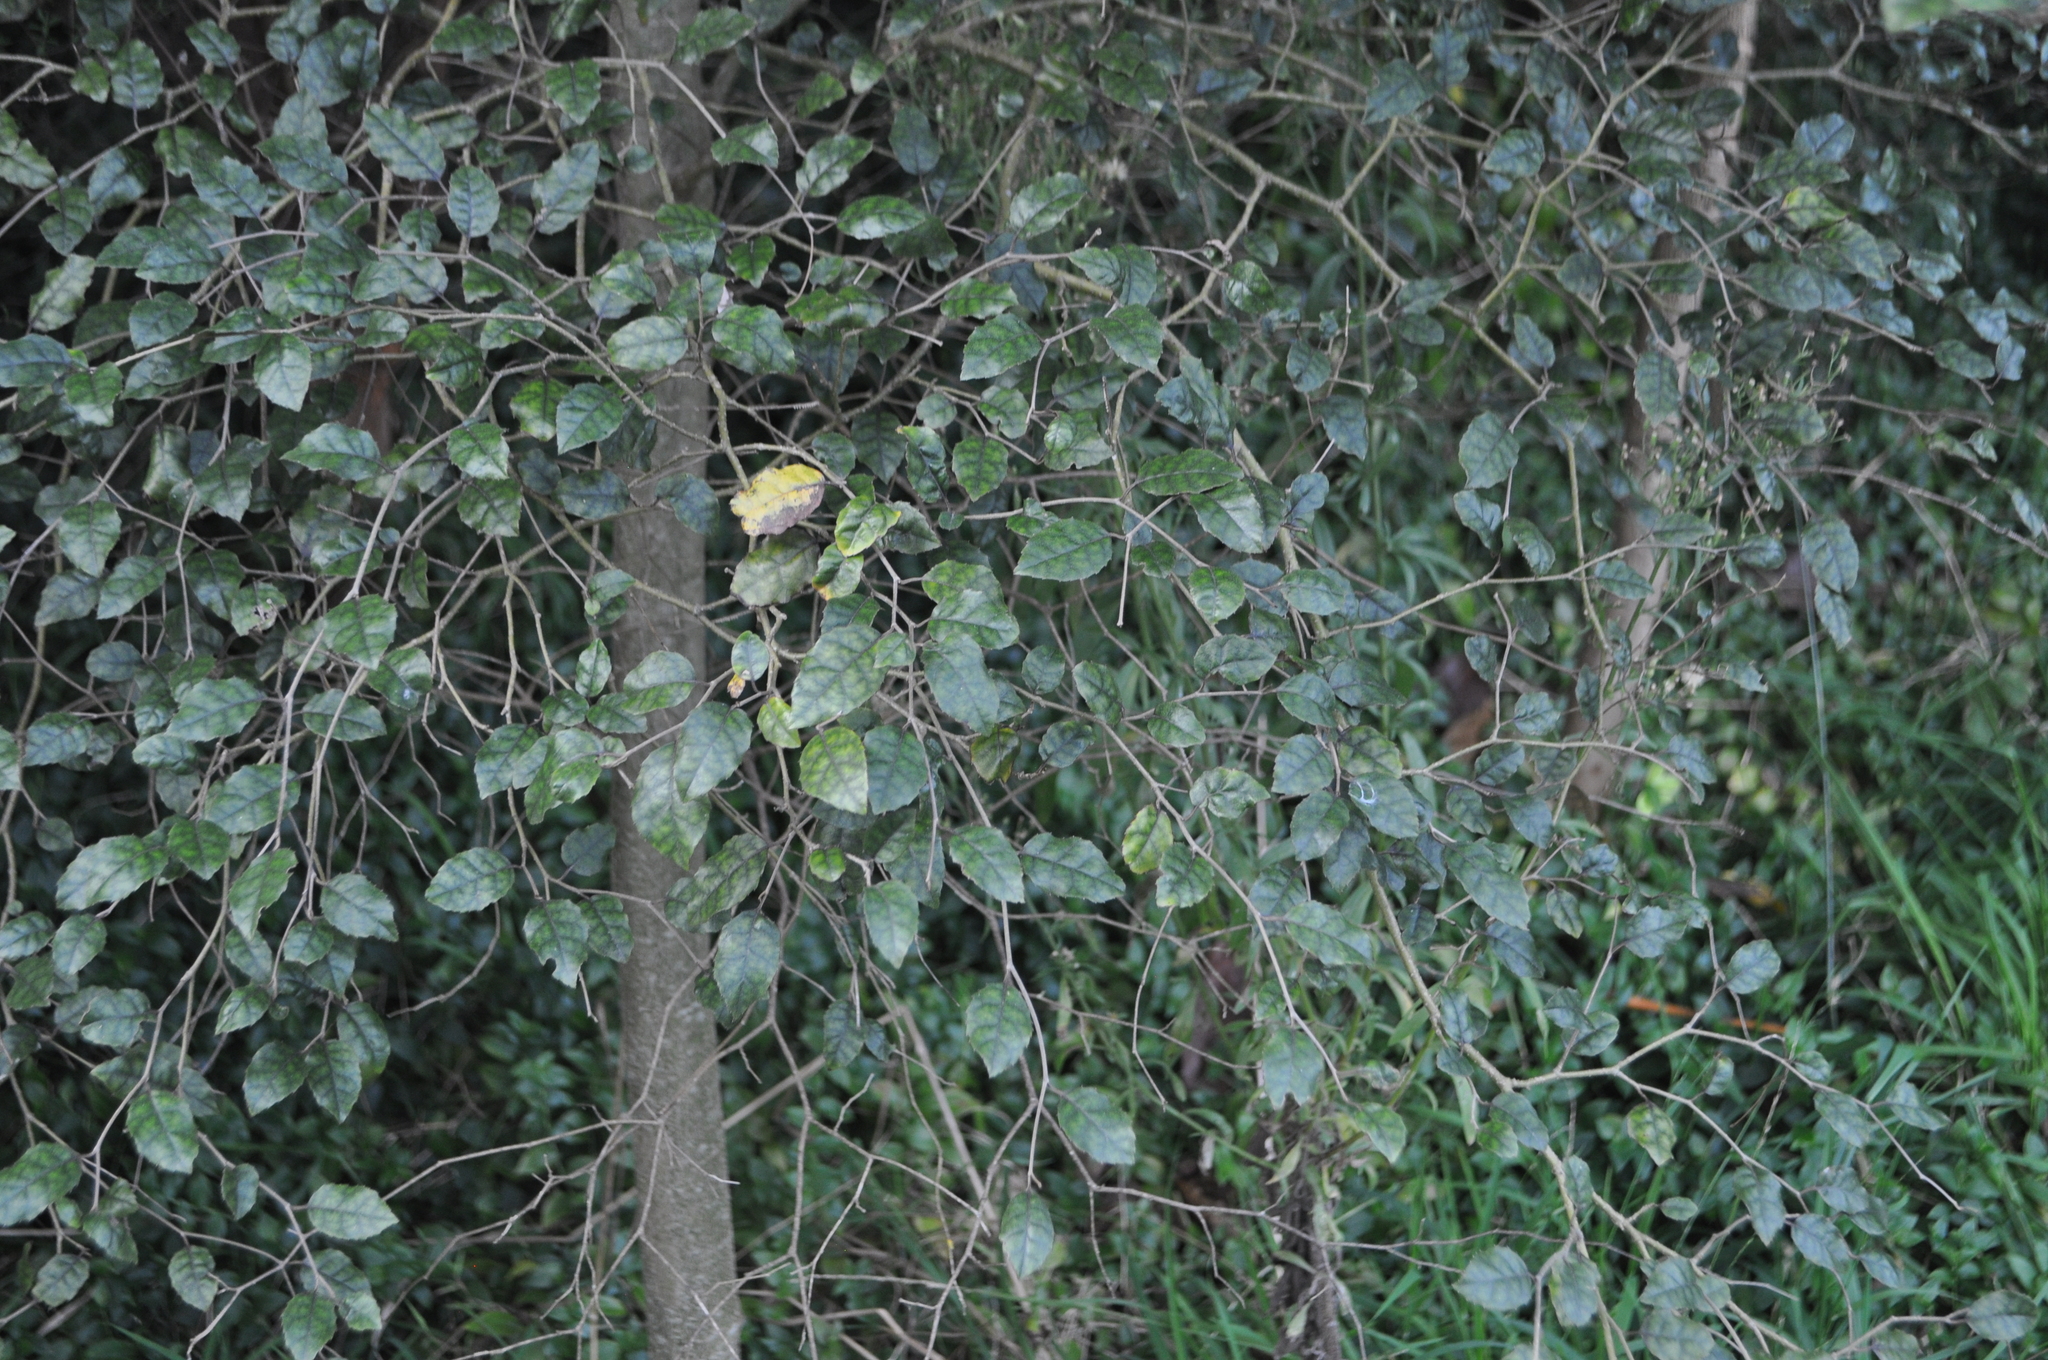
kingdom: Plantae
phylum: Tracheophyta
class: Magnoliopsida
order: Asterales
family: Rousseaceae
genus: Carpodetus
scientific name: Carpodetus serratus
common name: White mapau
